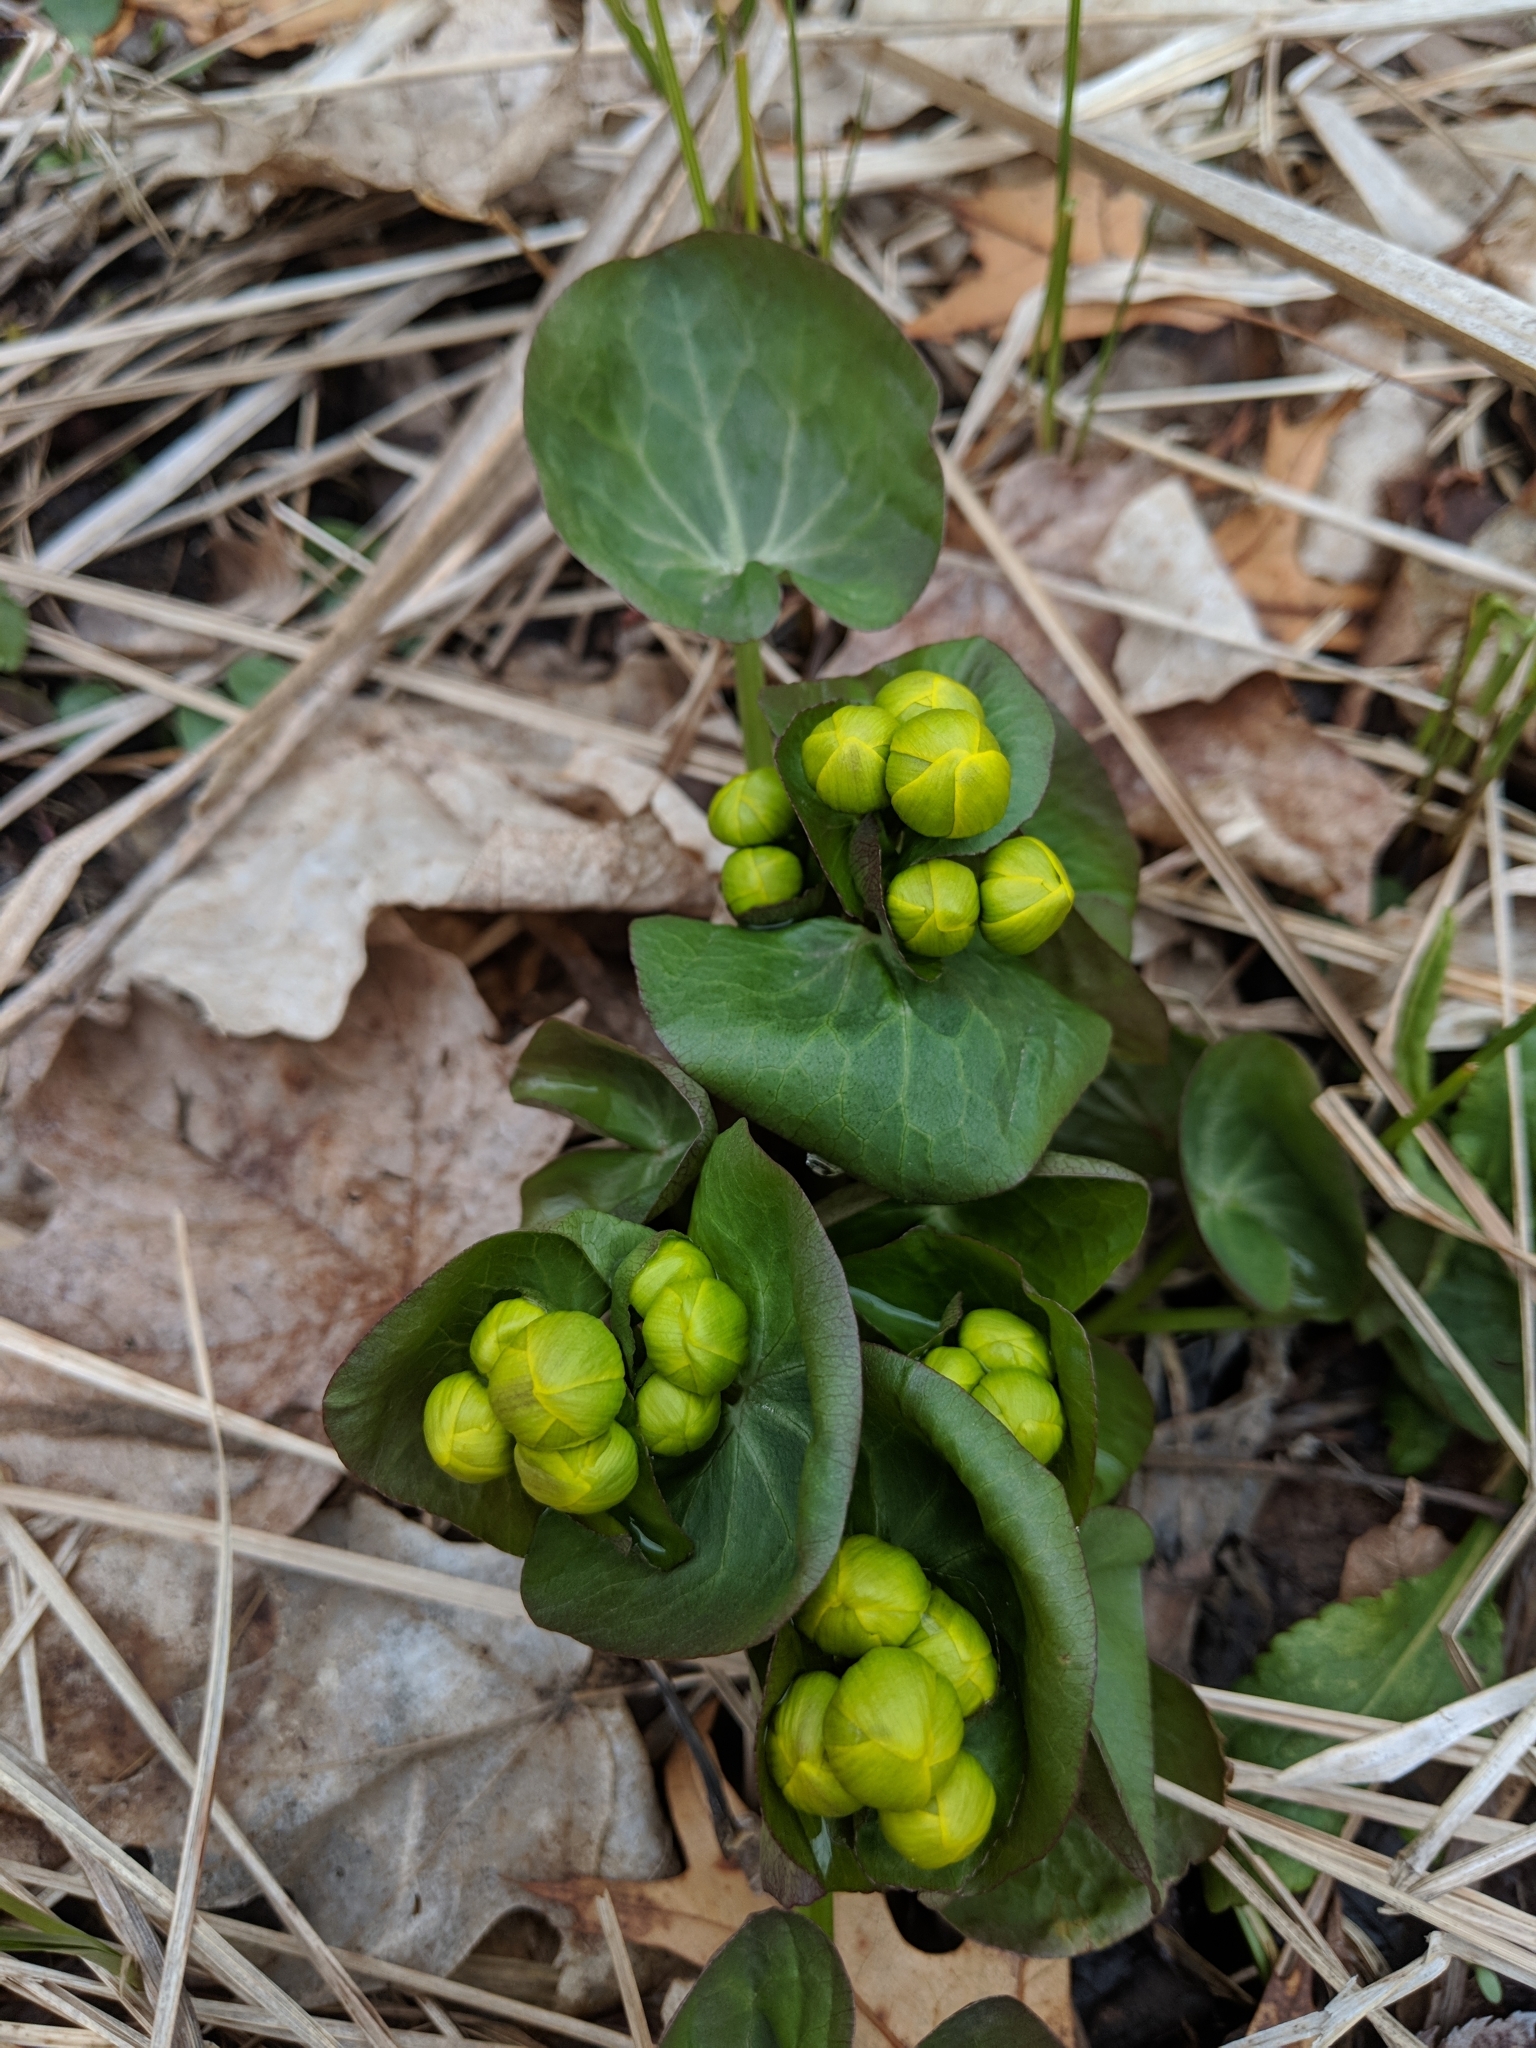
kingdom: Plantae
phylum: Tracheophyta
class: Magnoliopsida
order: Ranunculales
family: Ranunculaceae
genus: Caltha
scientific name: Caltha palustris
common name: Marsh marigold
